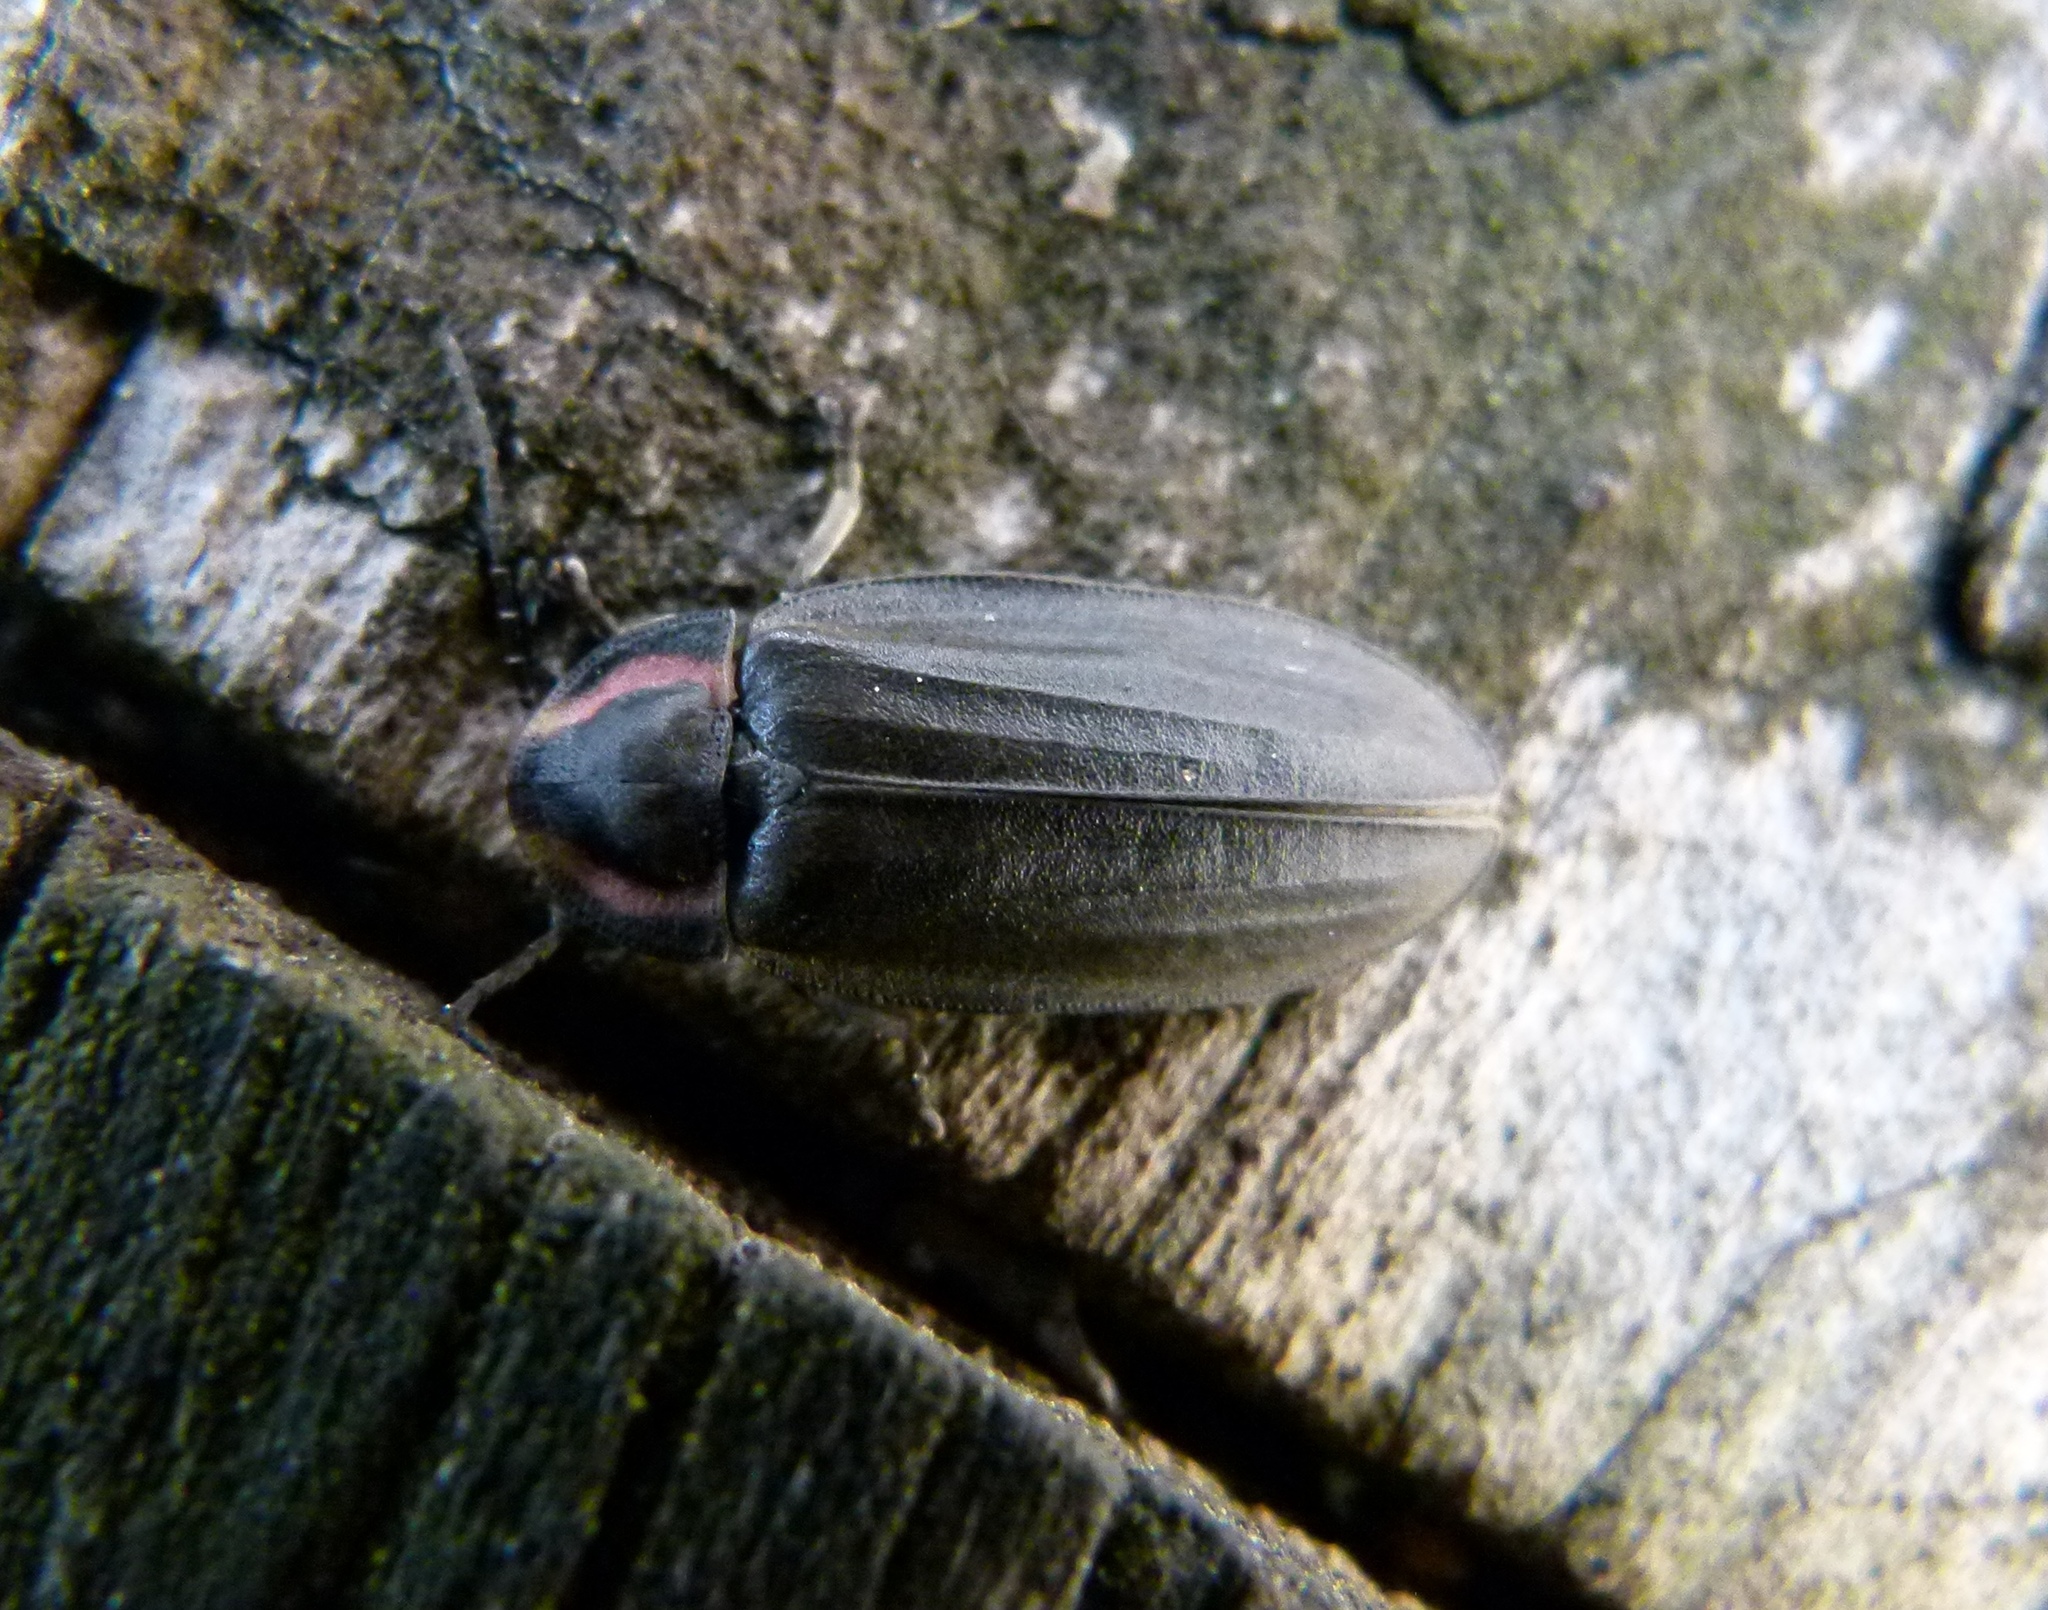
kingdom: Animalia
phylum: Arthropoda
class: Insecta
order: Coleoptera
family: Lampyridae
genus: Photinus
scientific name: Photinus corrusca
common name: Winter firefly
